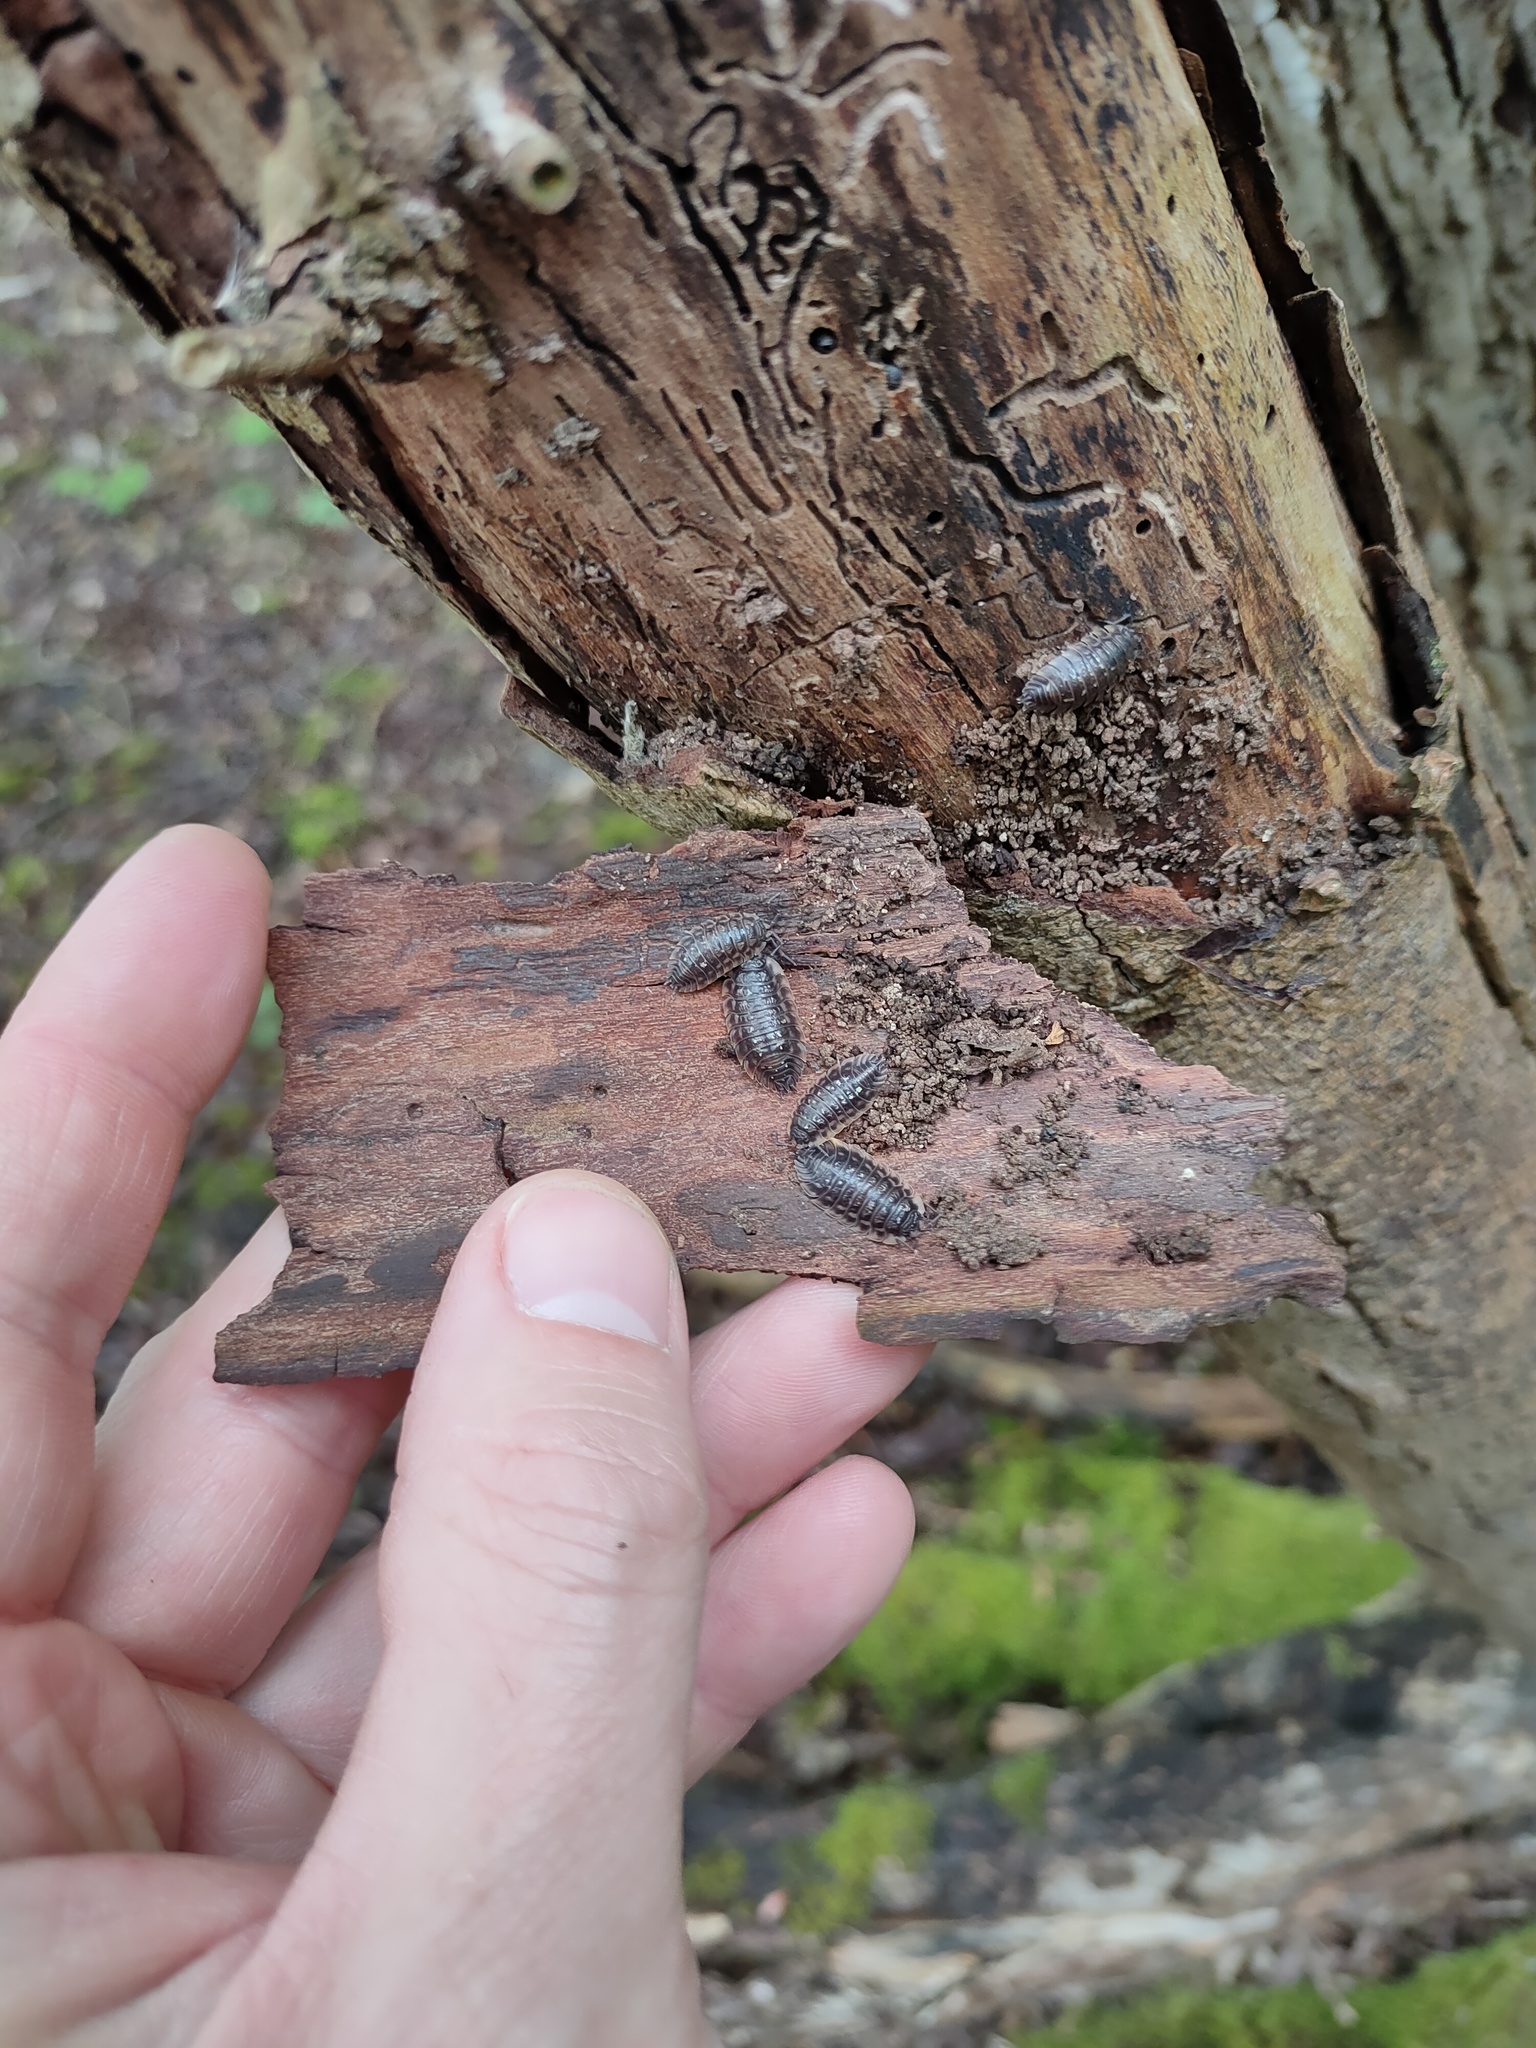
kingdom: Animalia
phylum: Arthropoda
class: Malacostraca
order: Isopoda
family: Oniscidae
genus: Oniscus
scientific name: Oniscus asellus
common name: Common shiny woodlouse
